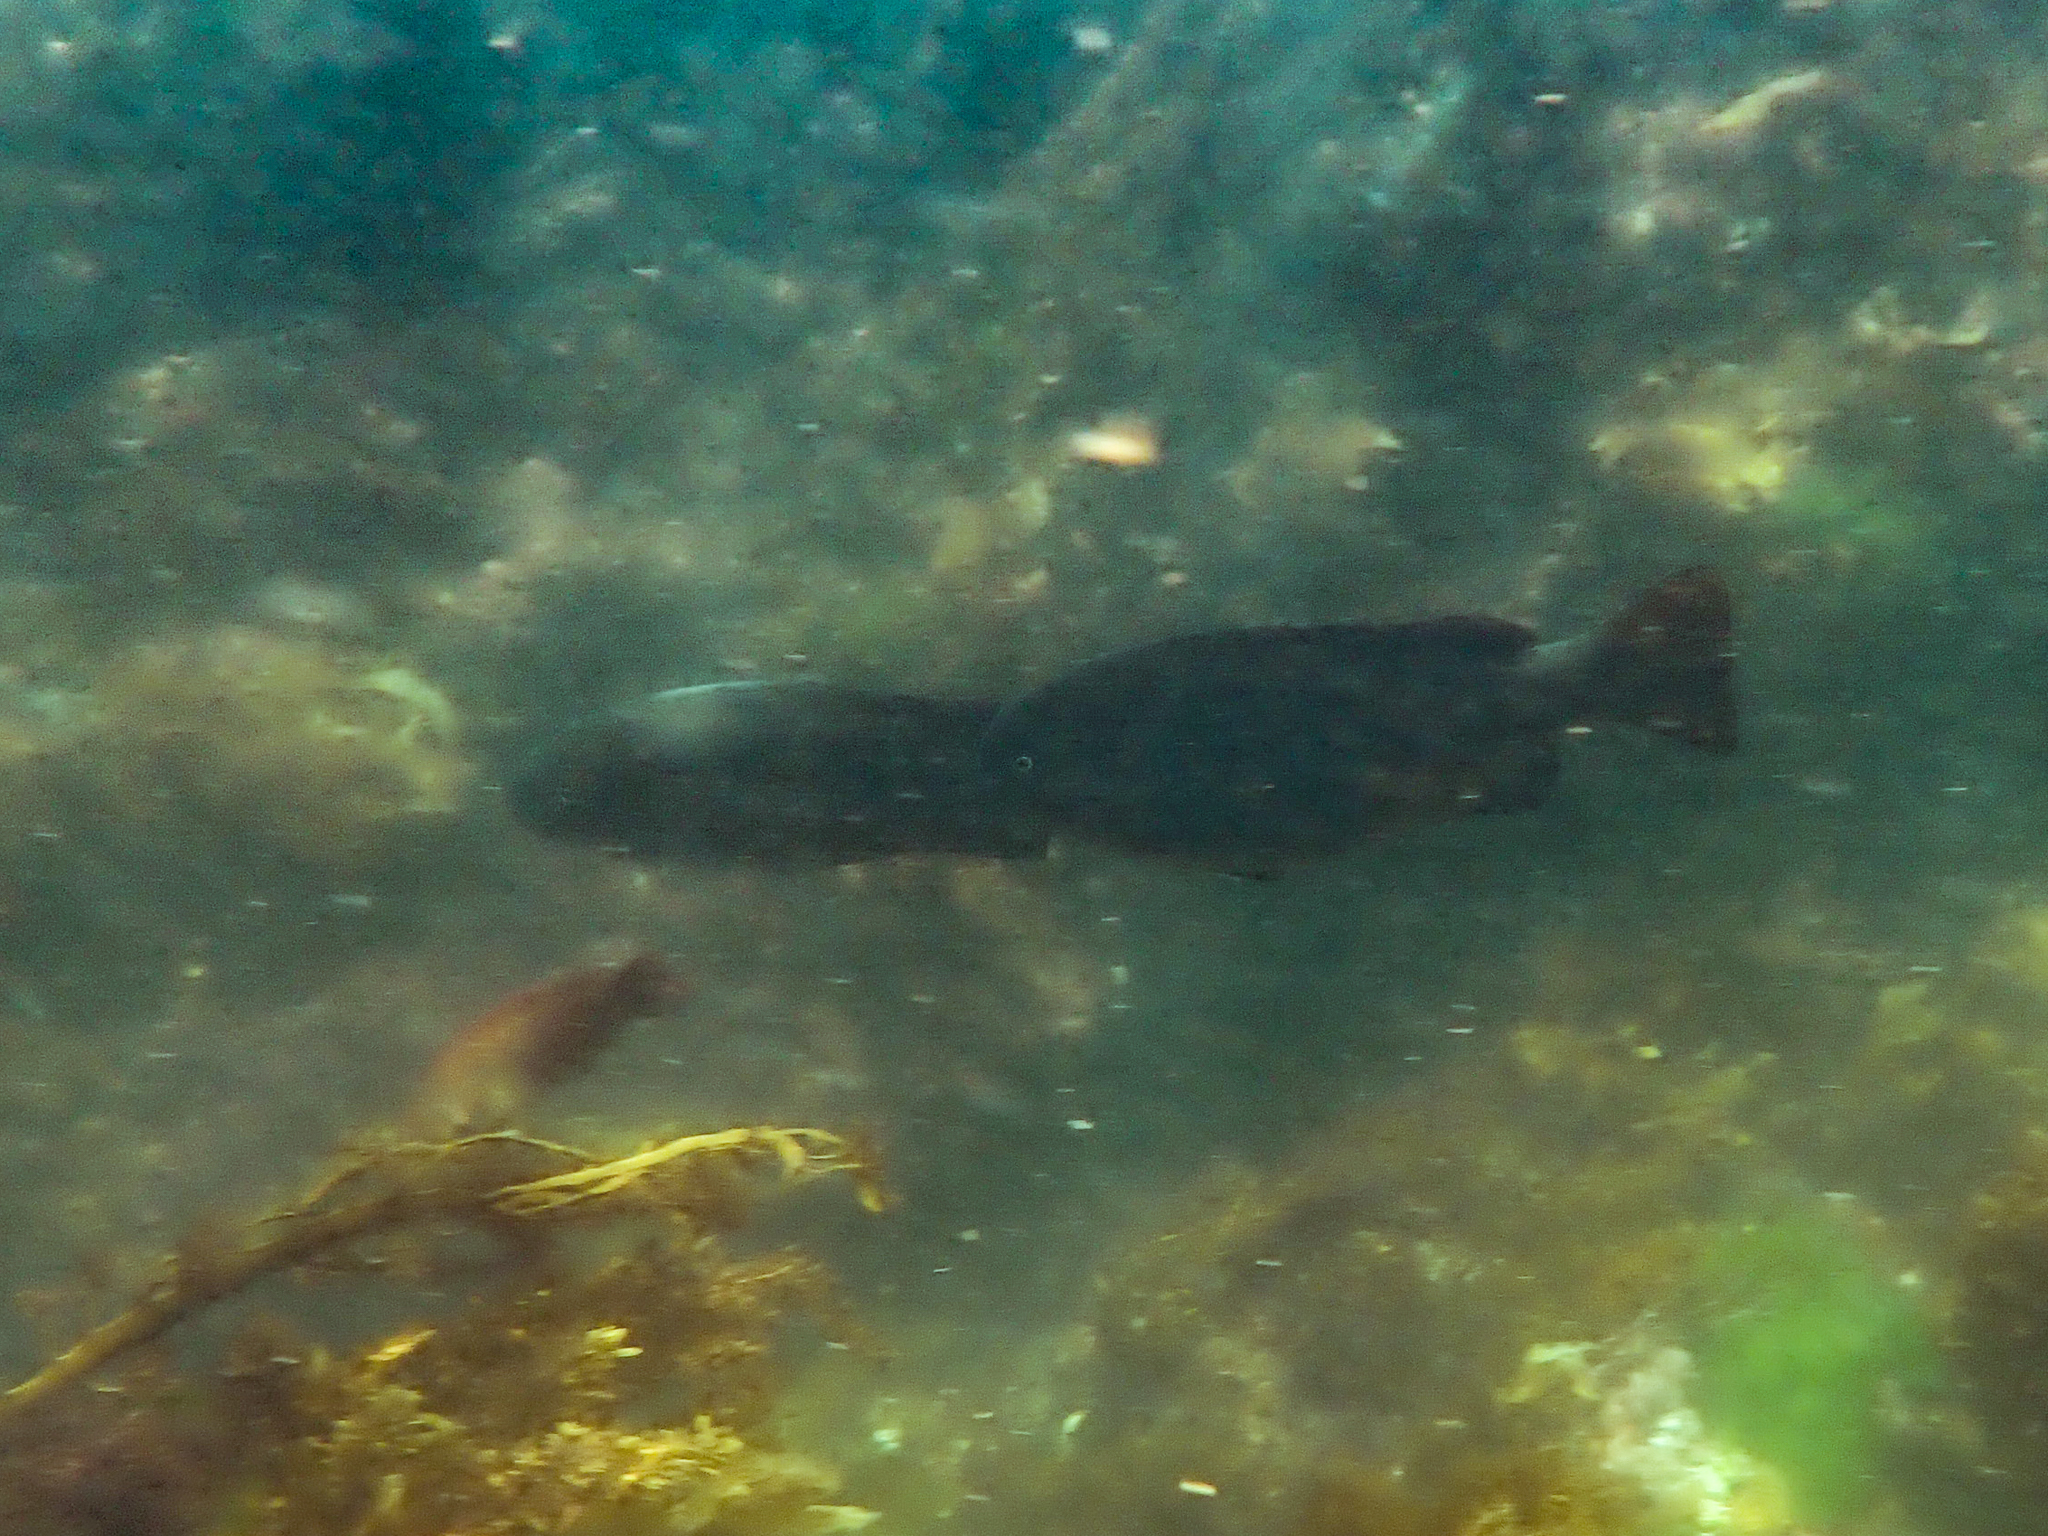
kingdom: Animalia
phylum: Chordata
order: Perciformes
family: Kyphosidae
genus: Girella
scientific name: Girella elevata
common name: Black bream
